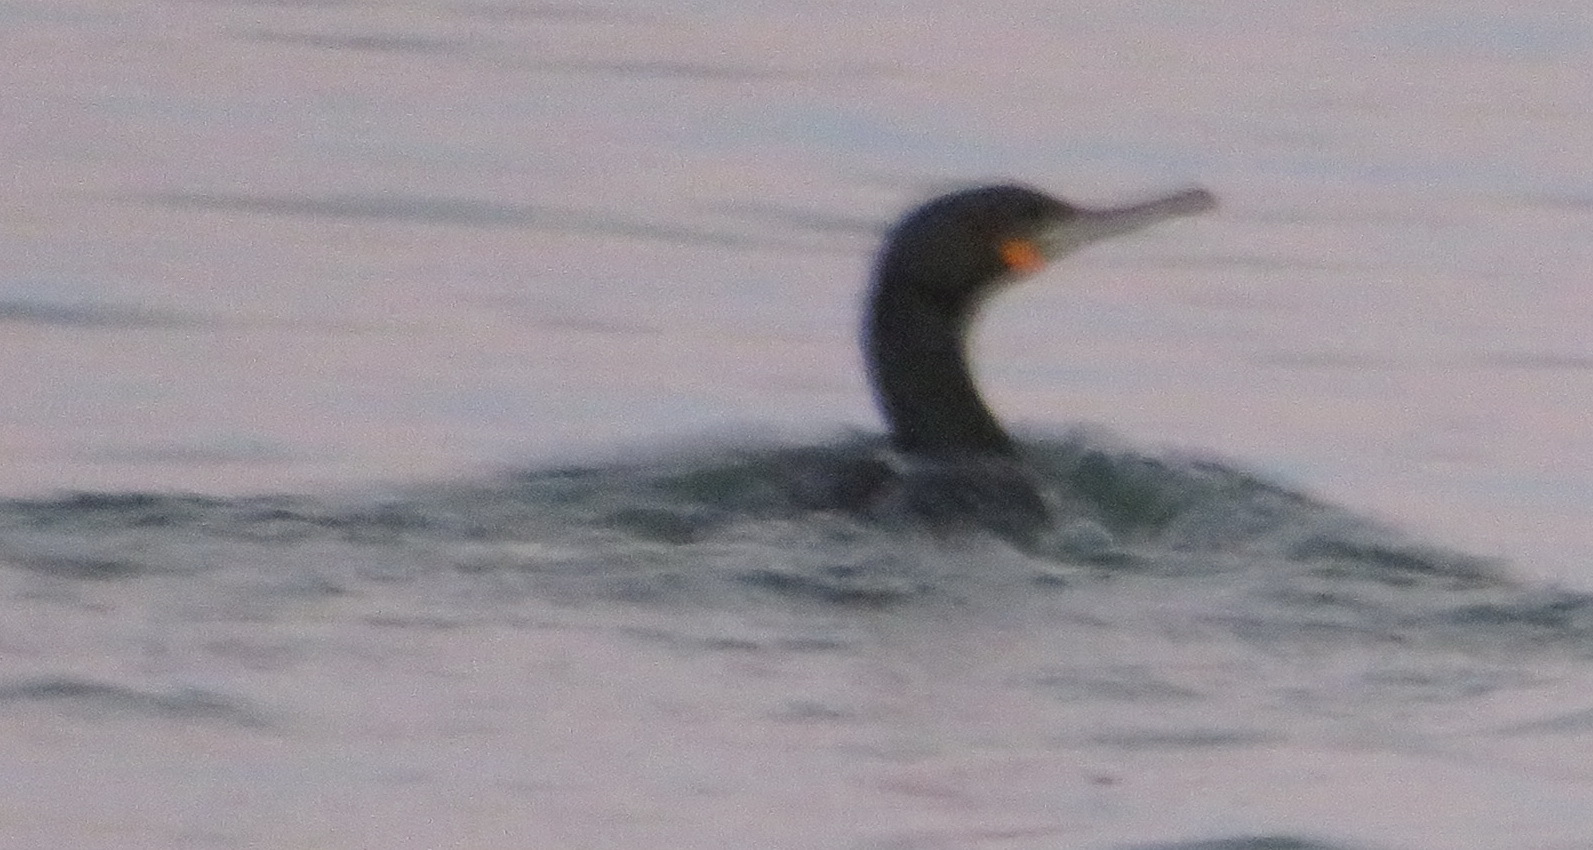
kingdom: Animalia
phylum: Chordata
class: Aves
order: Suliformes
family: Phalacrocoracidae
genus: Phalacrocorax
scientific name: Phalacrocorax capensis
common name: Cape cormorant
